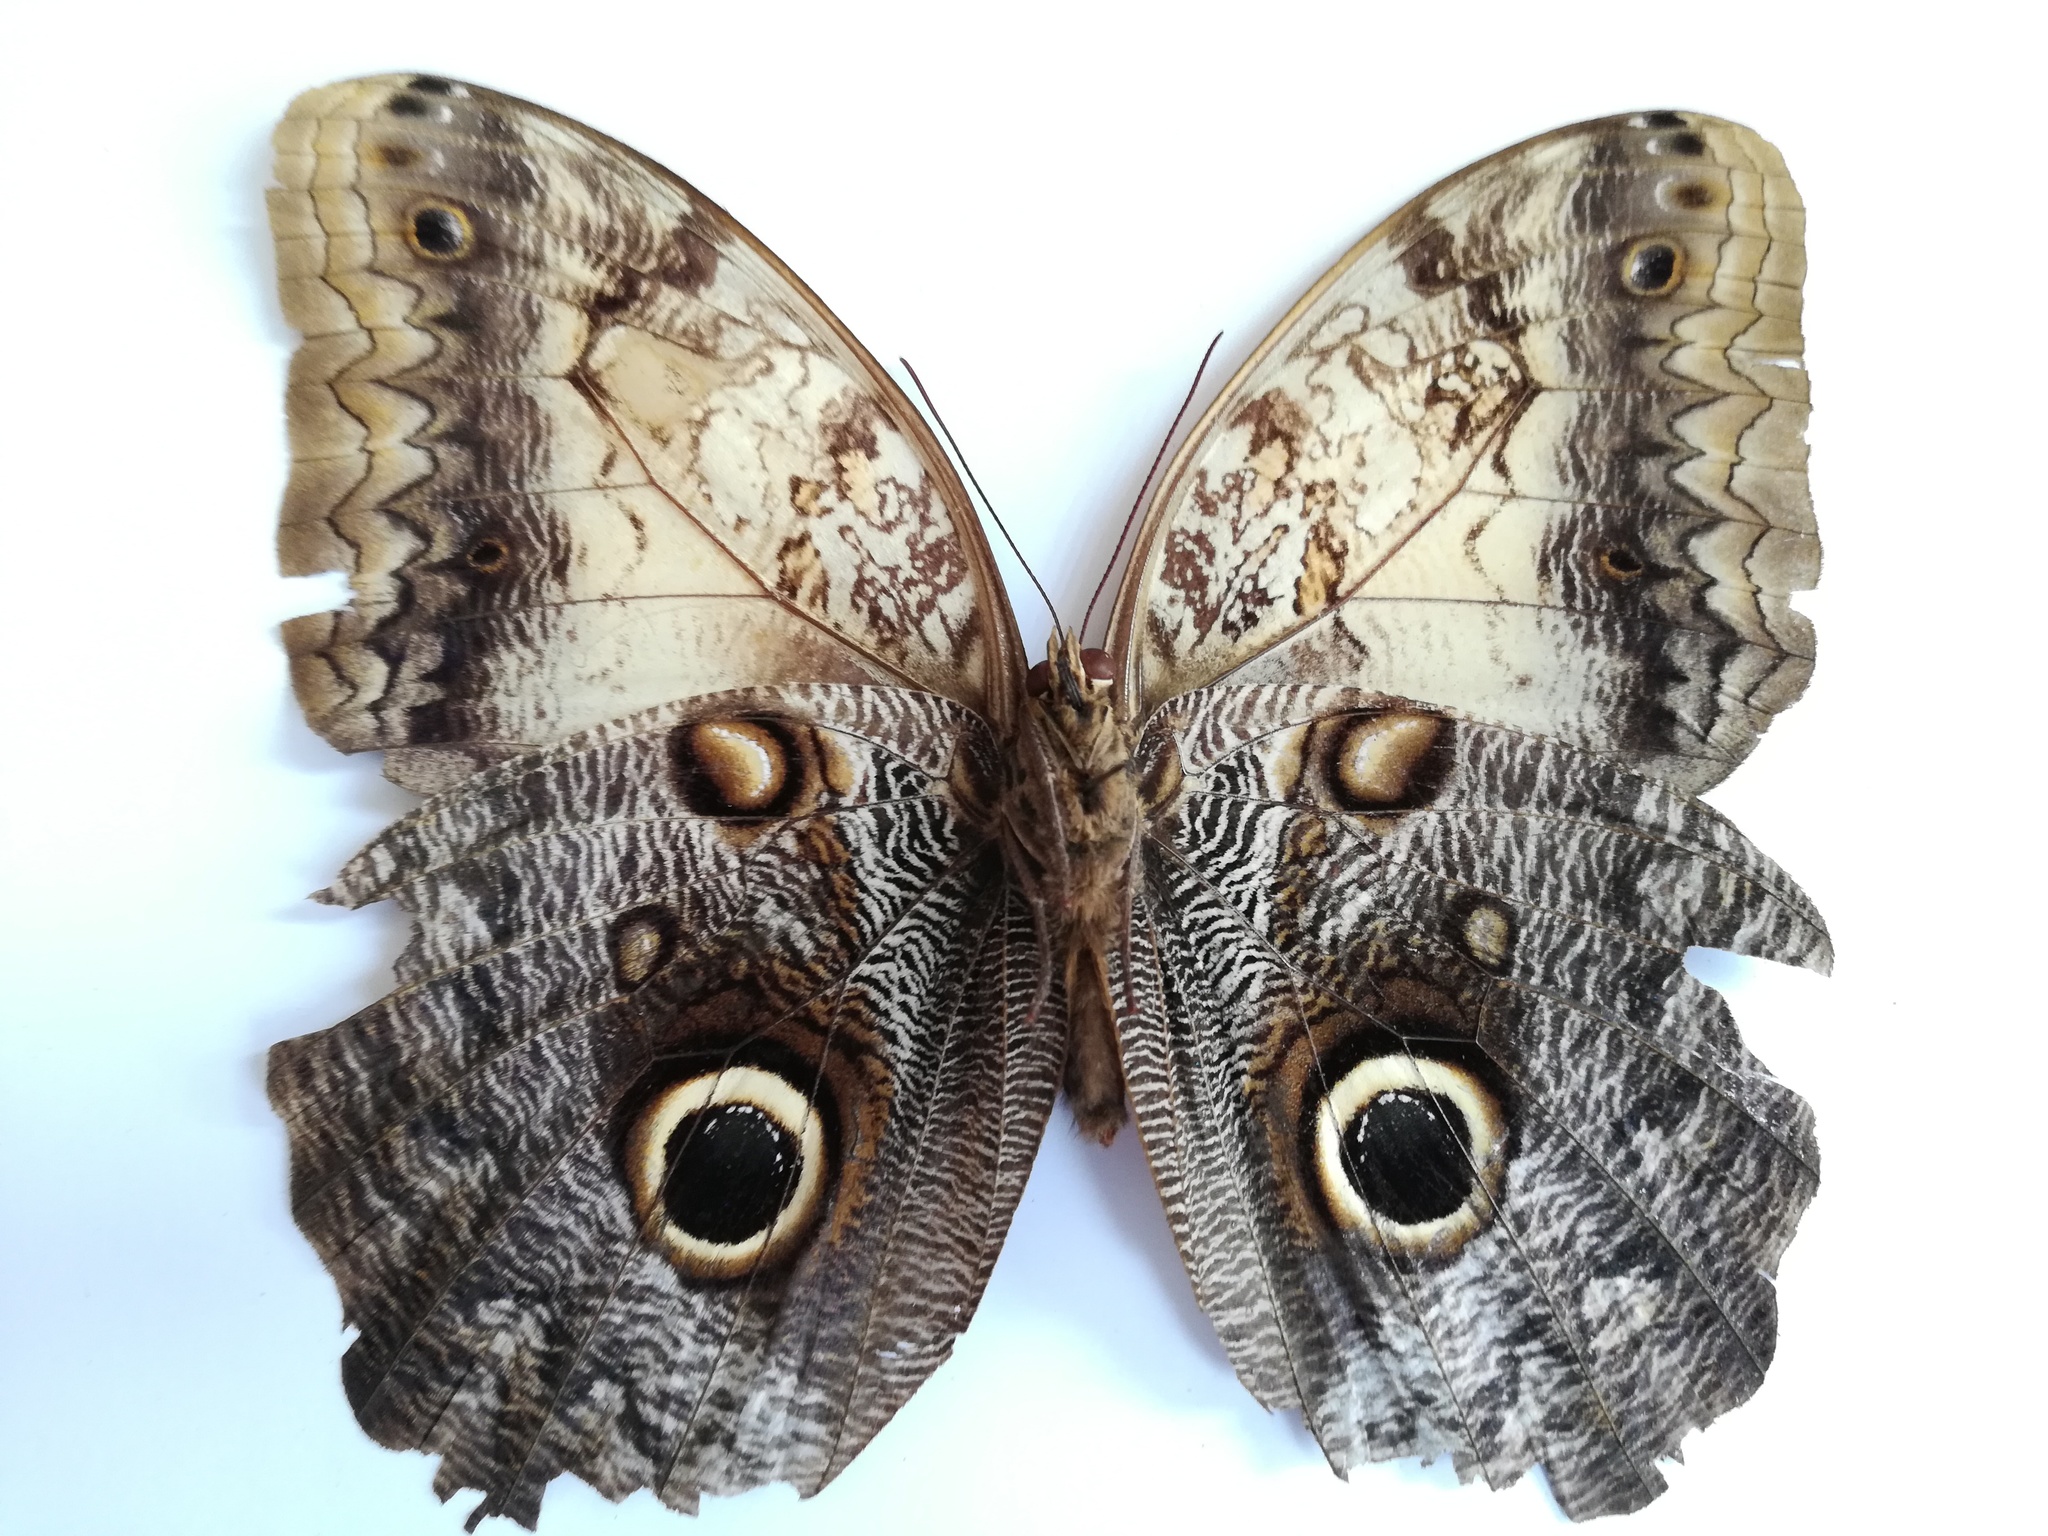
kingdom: Animalia
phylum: Arthropoda
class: Insecta
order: Lepidoptera
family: Nymphalidae
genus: Caligo
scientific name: Caligo telamonius
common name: Pale owl-butterfly
